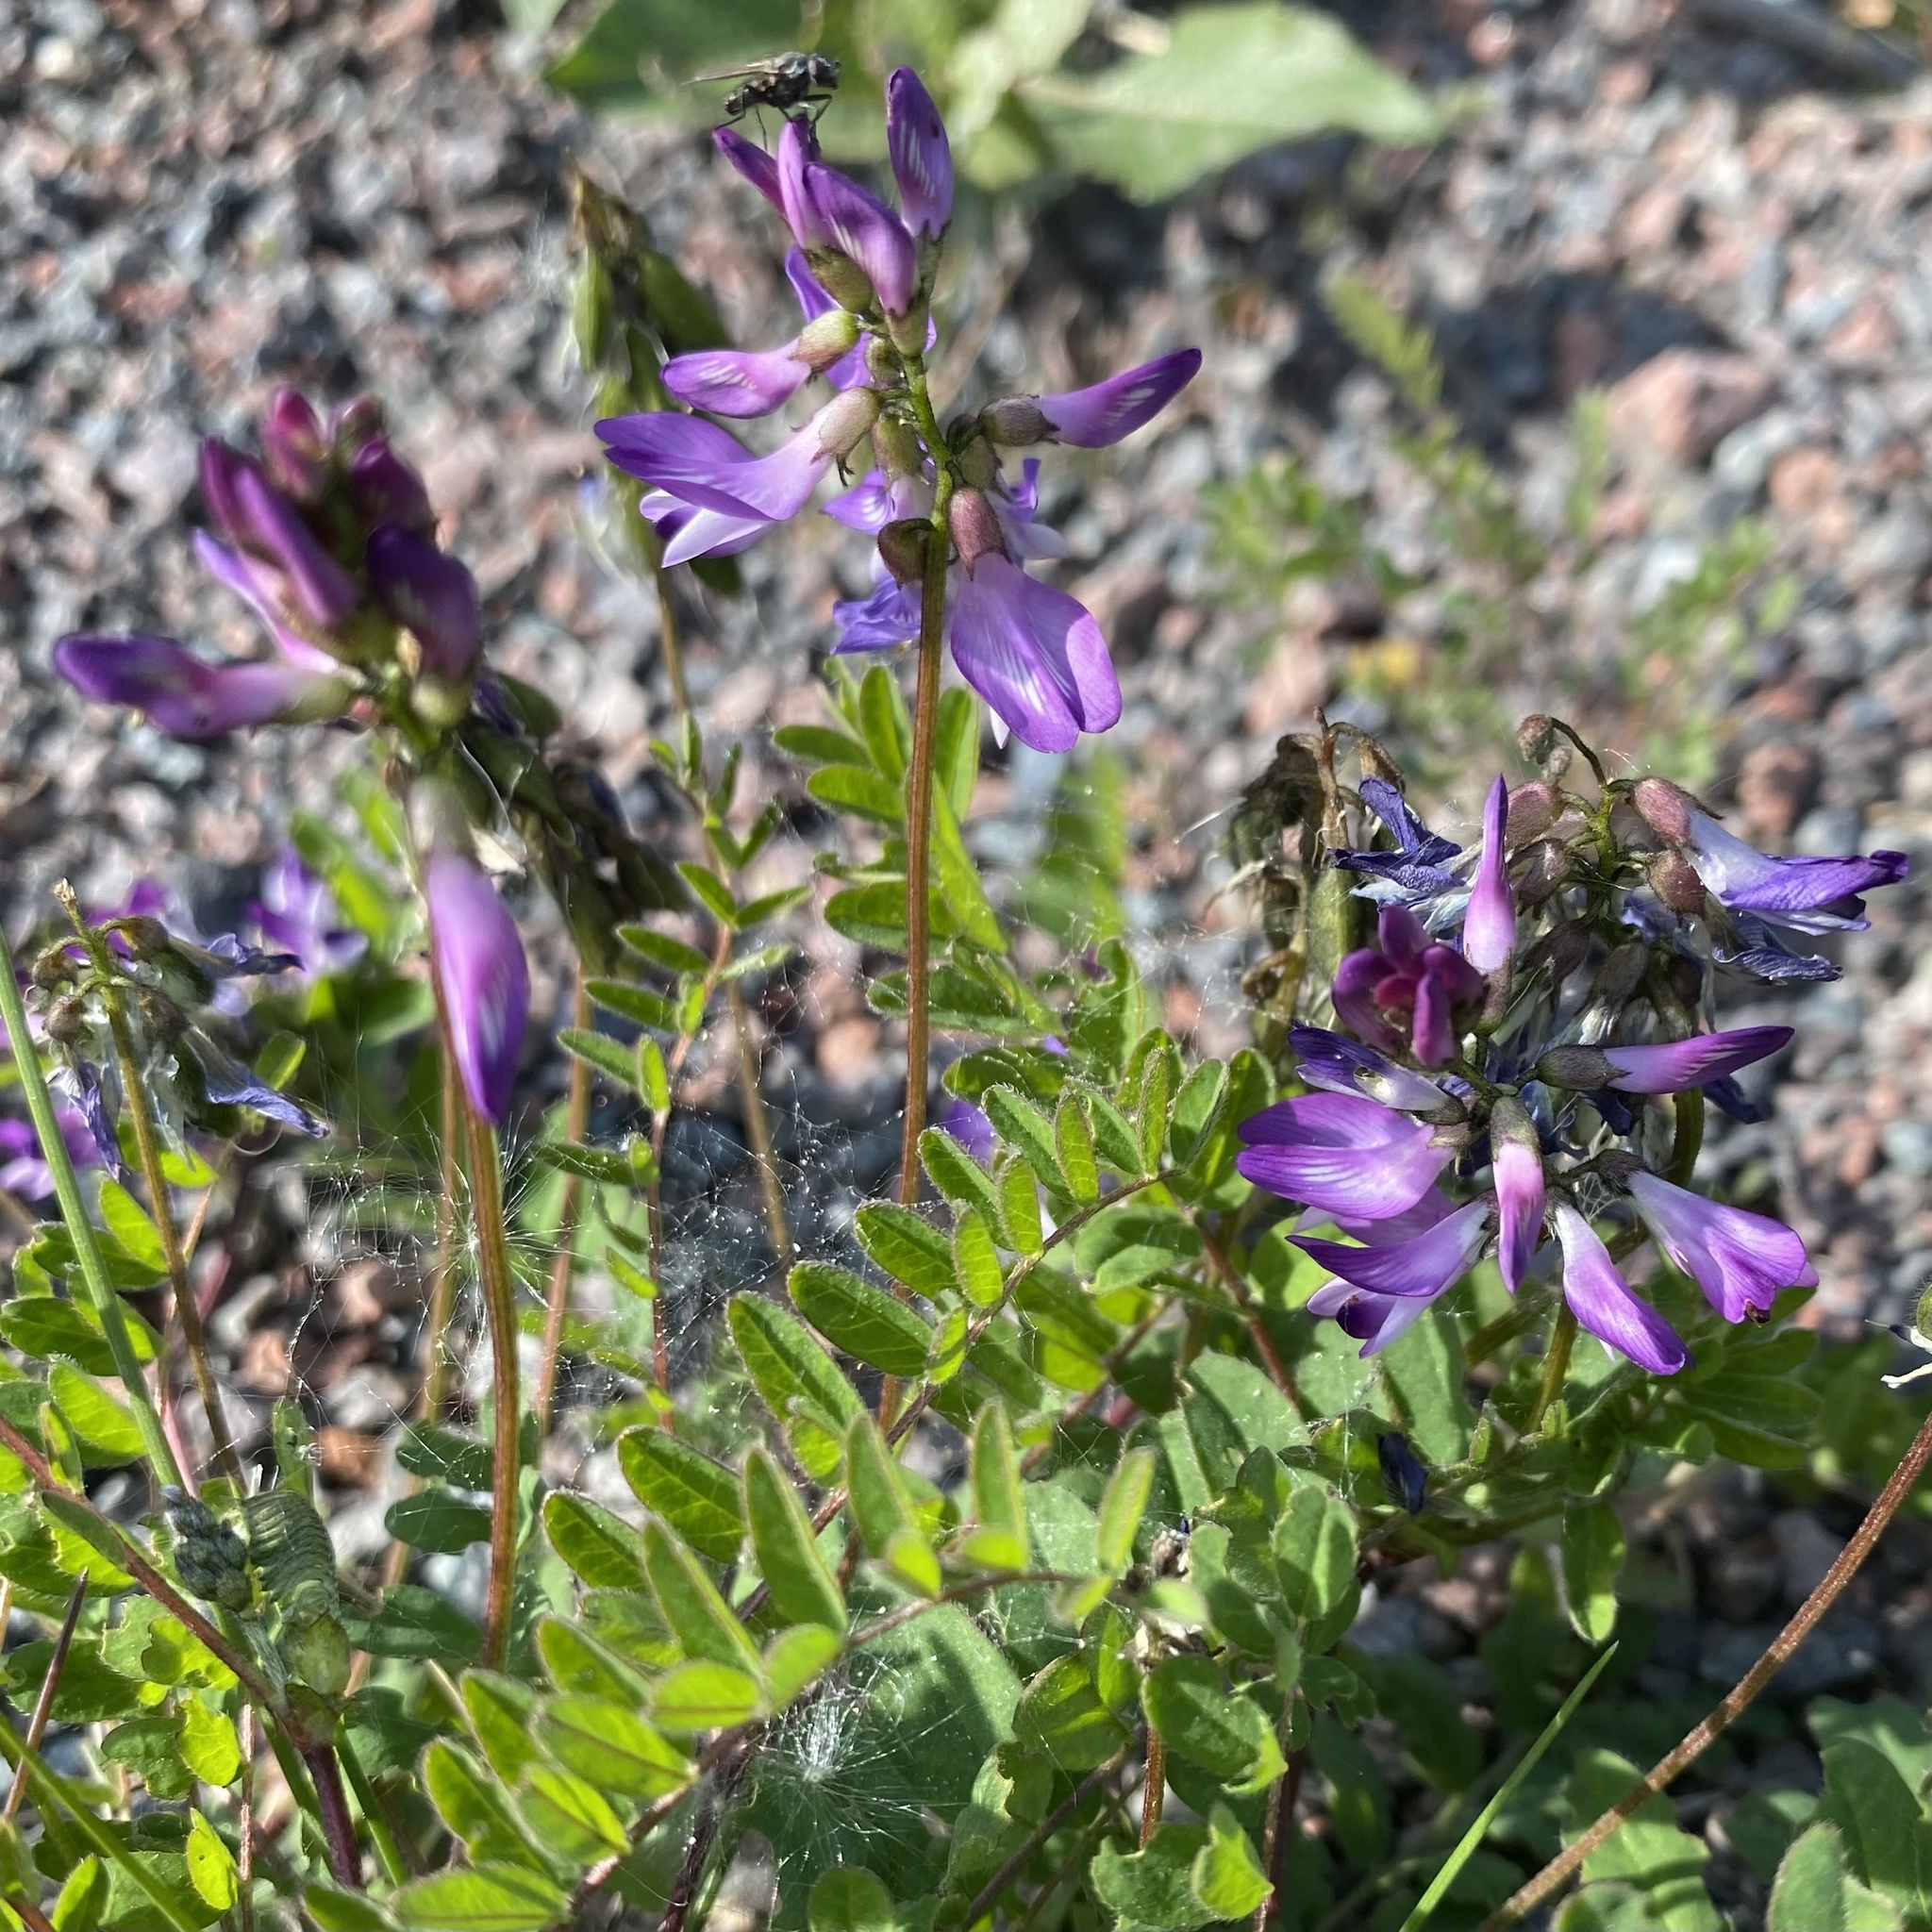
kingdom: Plantae
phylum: Tracheophyta
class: Magnoliopsida
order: Fabales
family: Fabaceae
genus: Astragalus
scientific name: Astragalus alpinus
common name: Alpine milk-vetch
